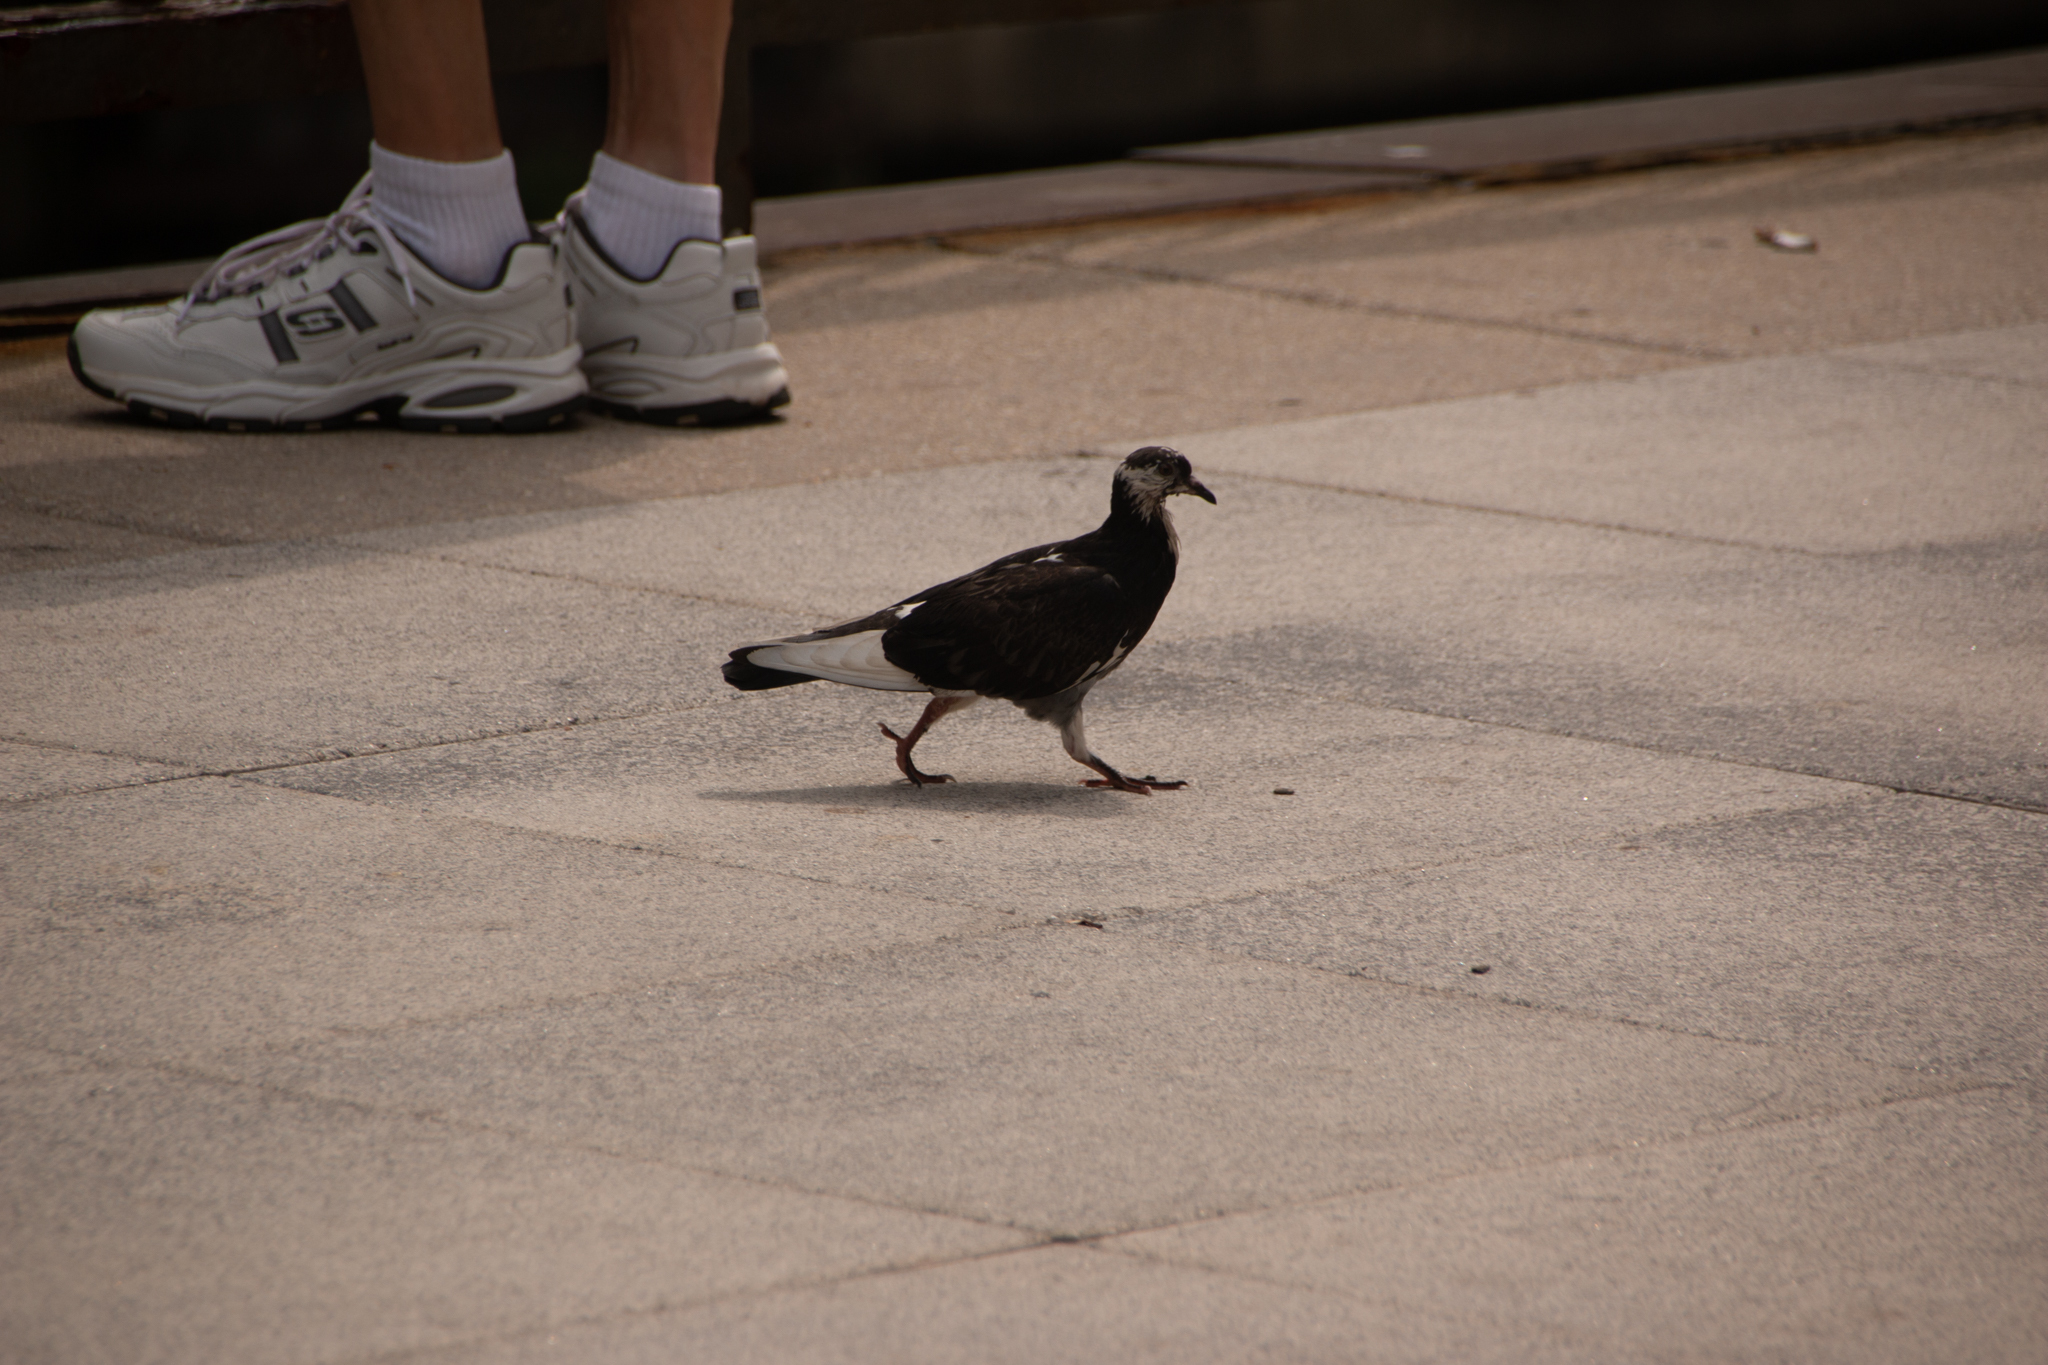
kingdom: Animalia
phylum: Chordata
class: Aves
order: Columbiformes
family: Columbidae
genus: Columba
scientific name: Columba livia
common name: Rock pigeon
